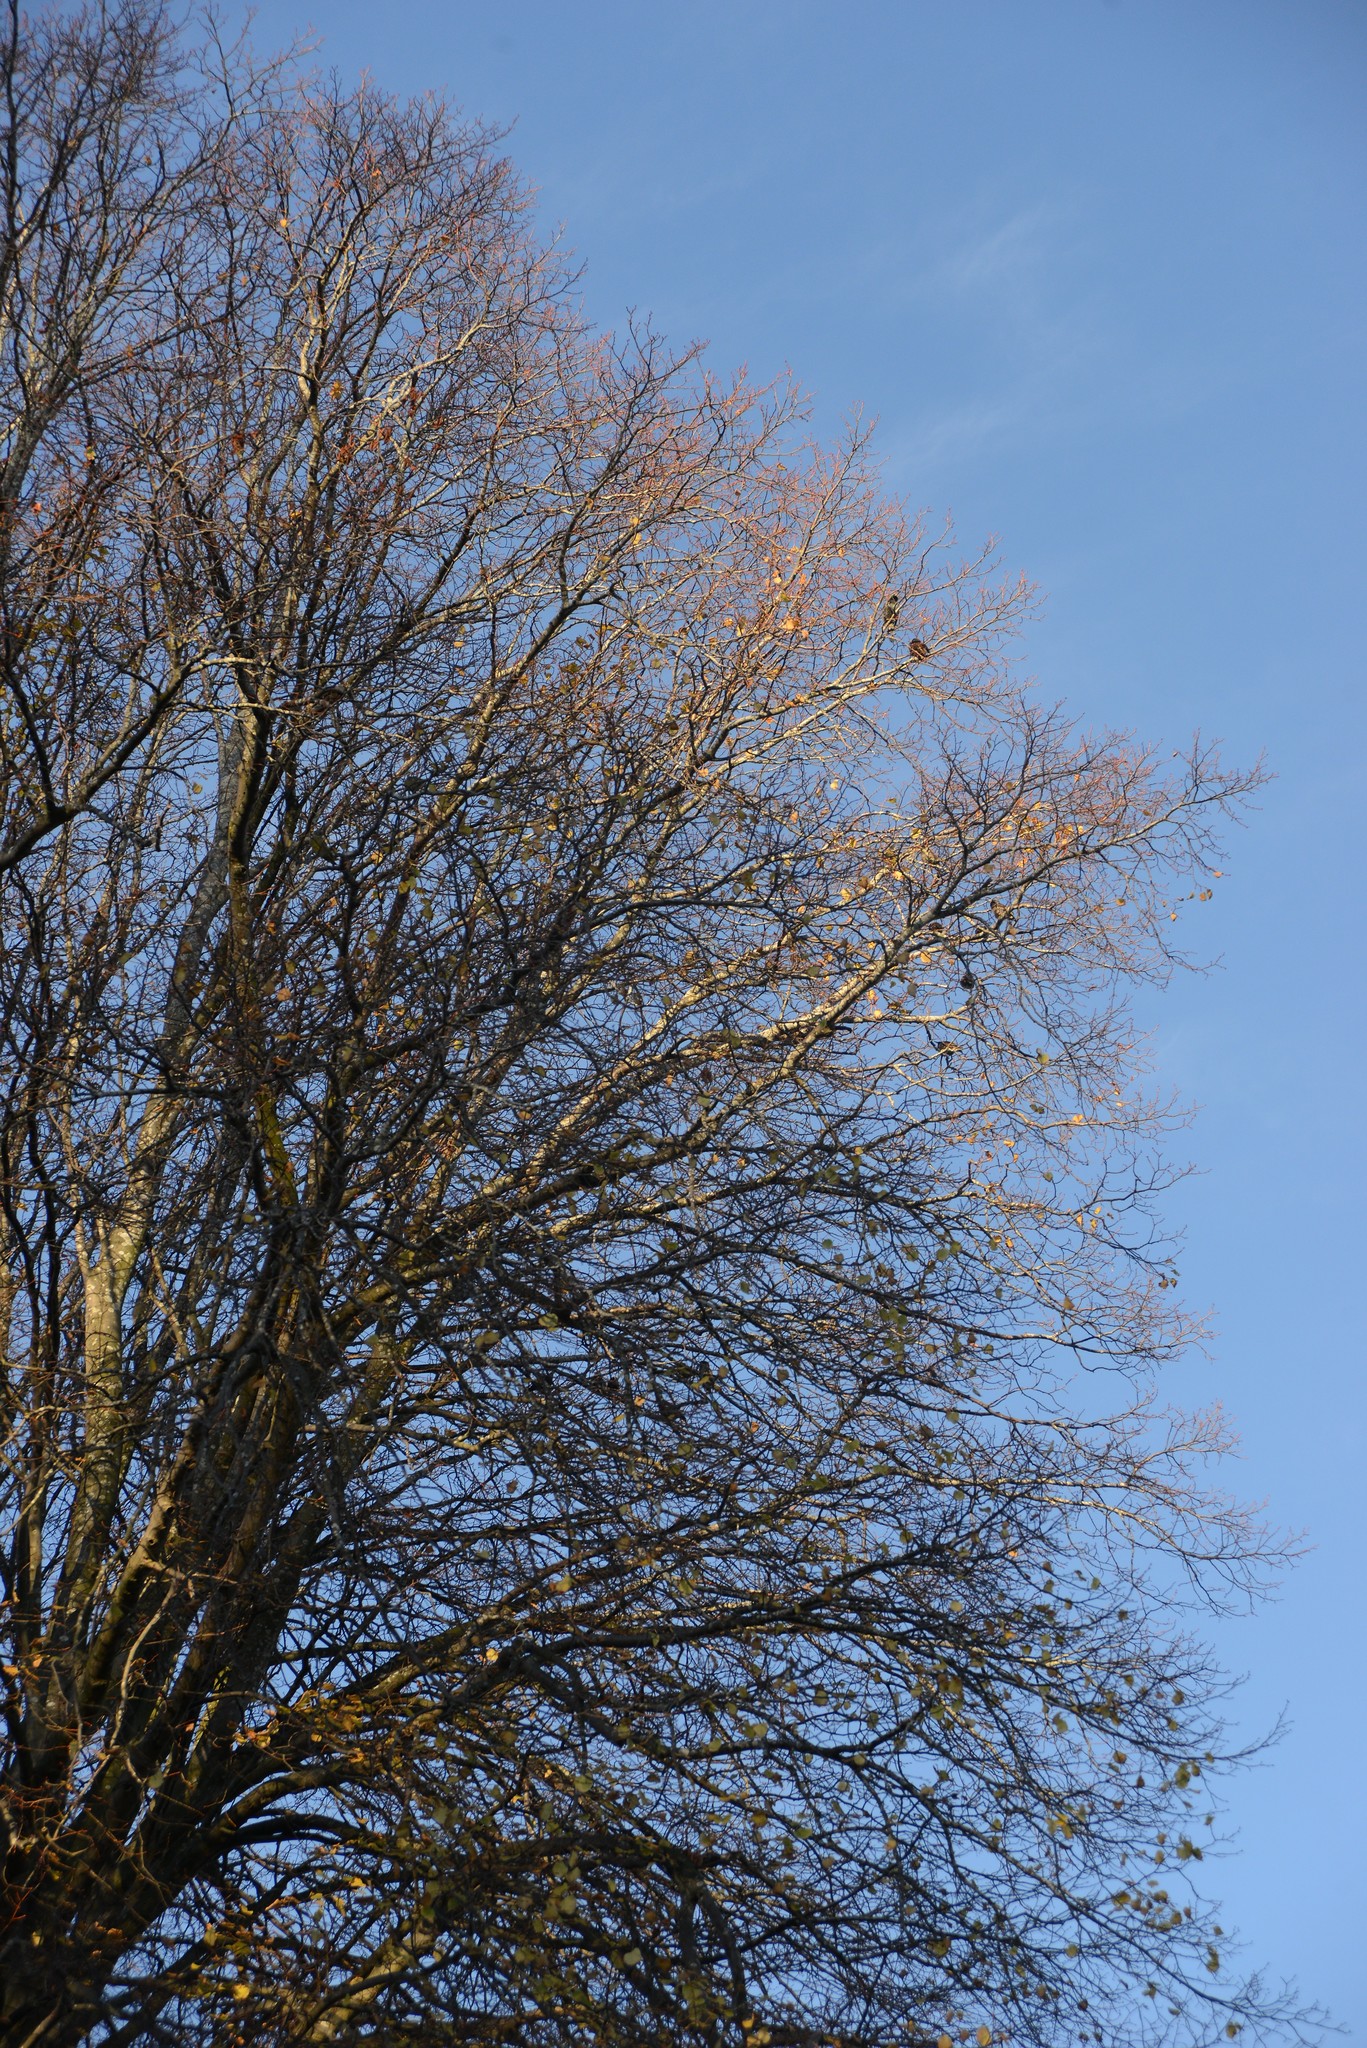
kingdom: Animalia
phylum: Chordata
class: Aves
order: Passeriformes
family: Sturnidae
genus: Sturnus
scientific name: Sturnus vulgaris
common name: Common starling
